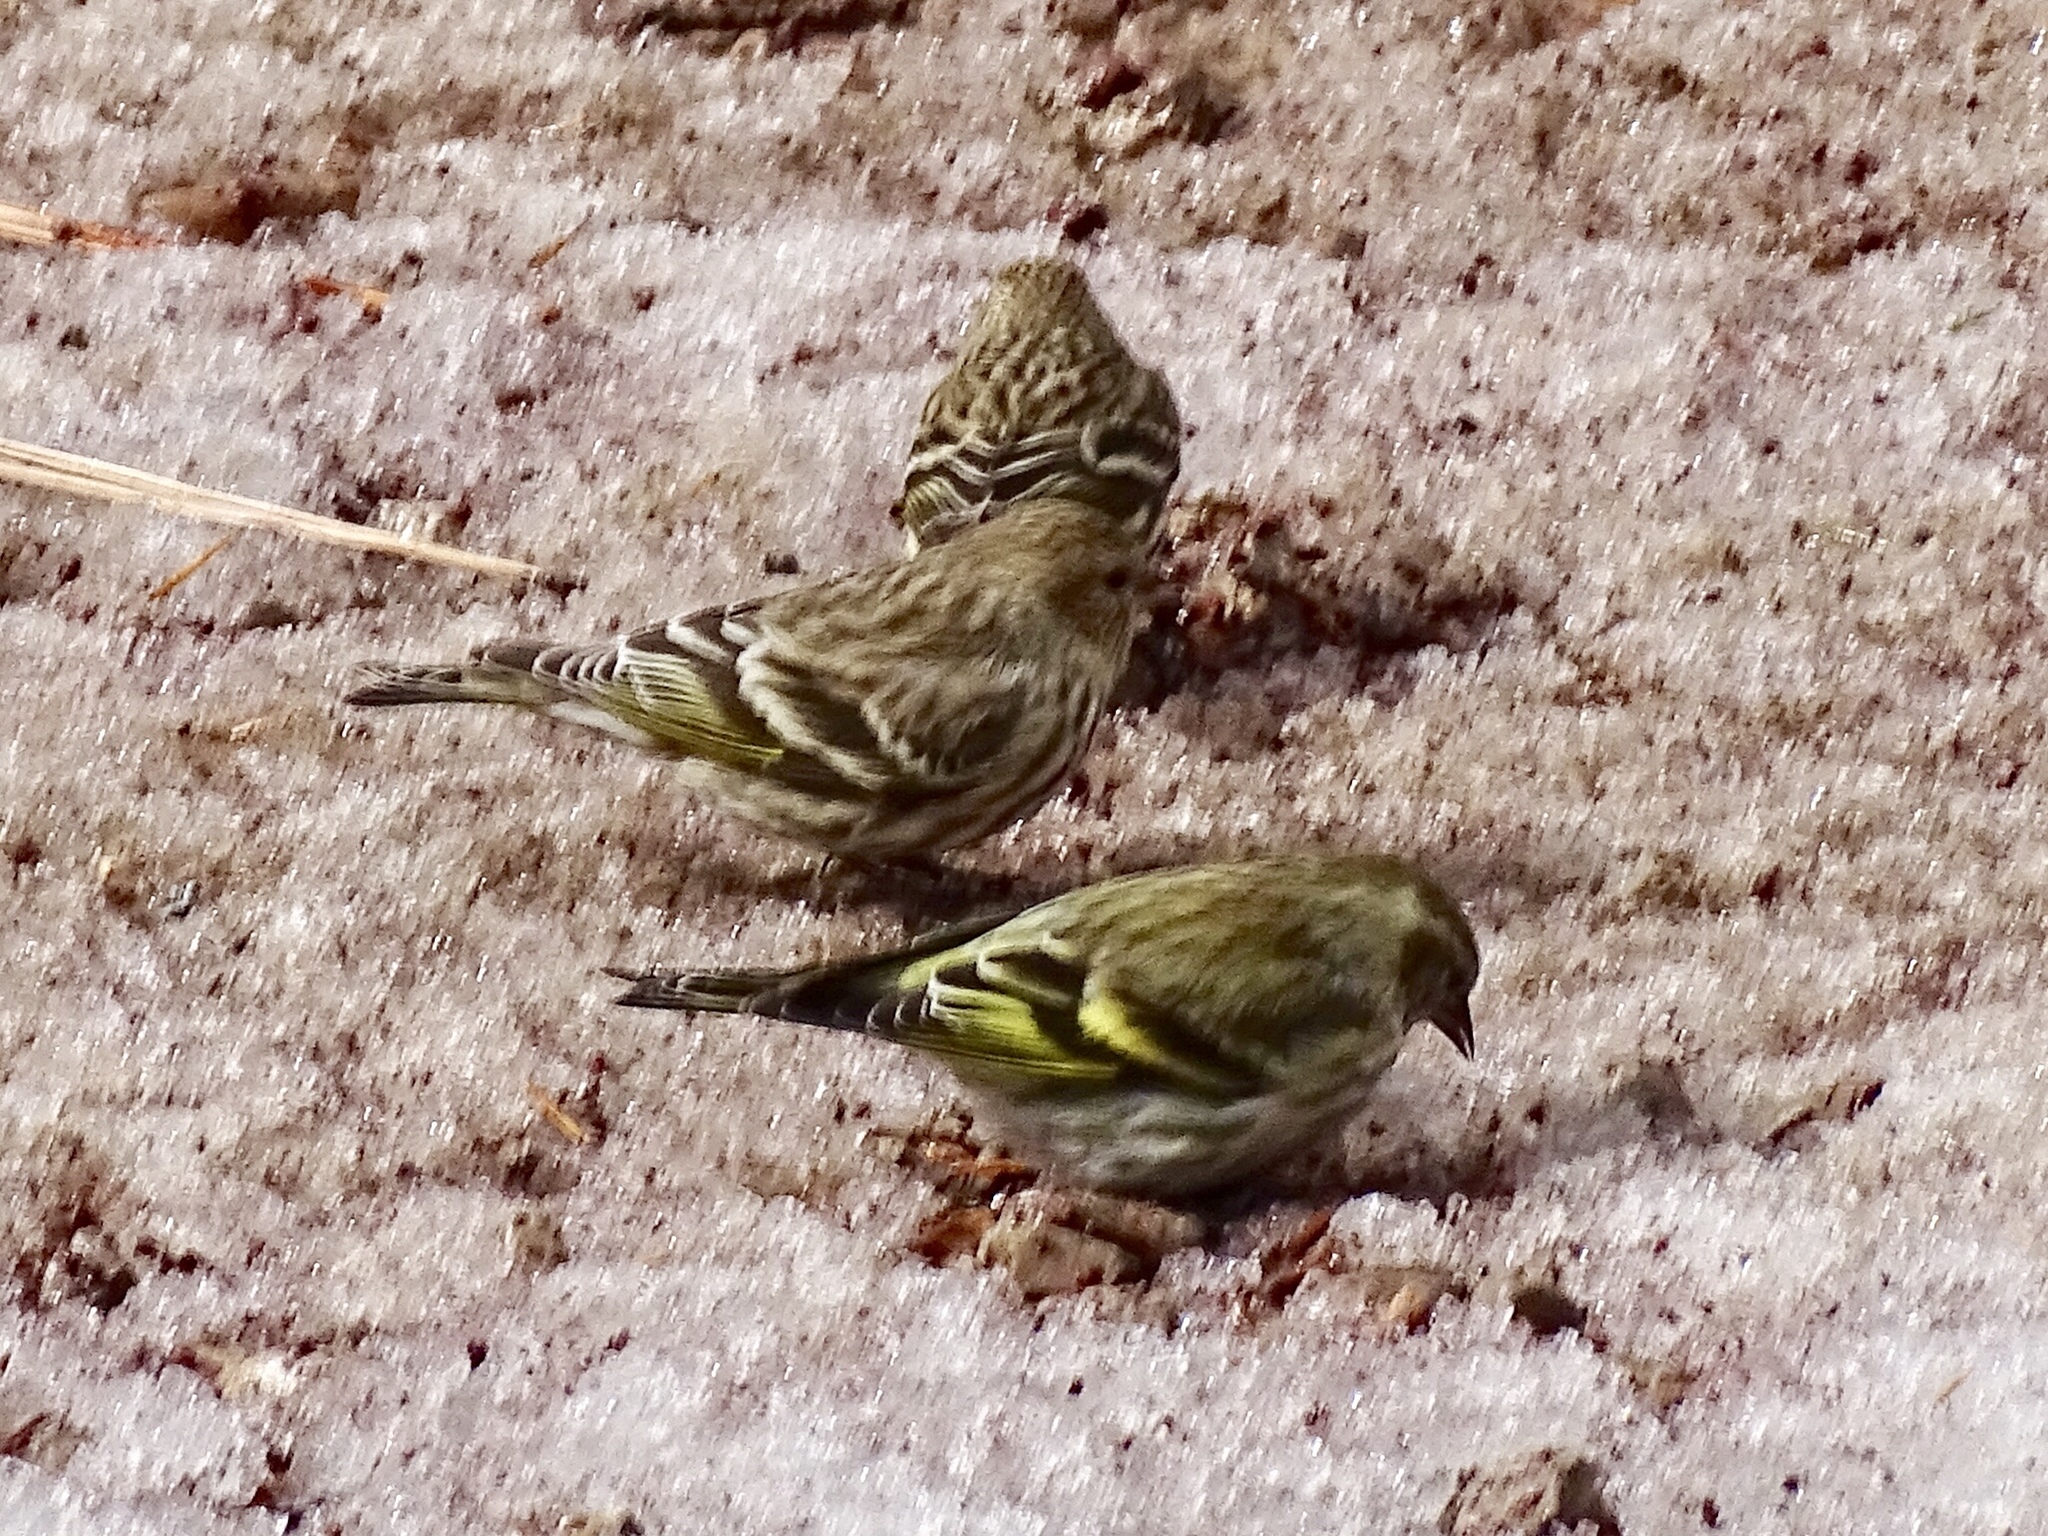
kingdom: Animalia
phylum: Chordata
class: Aves
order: Passeriformes
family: Fringillidae
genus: Spinus
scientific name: Spinus pinus
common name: Pine siskin
